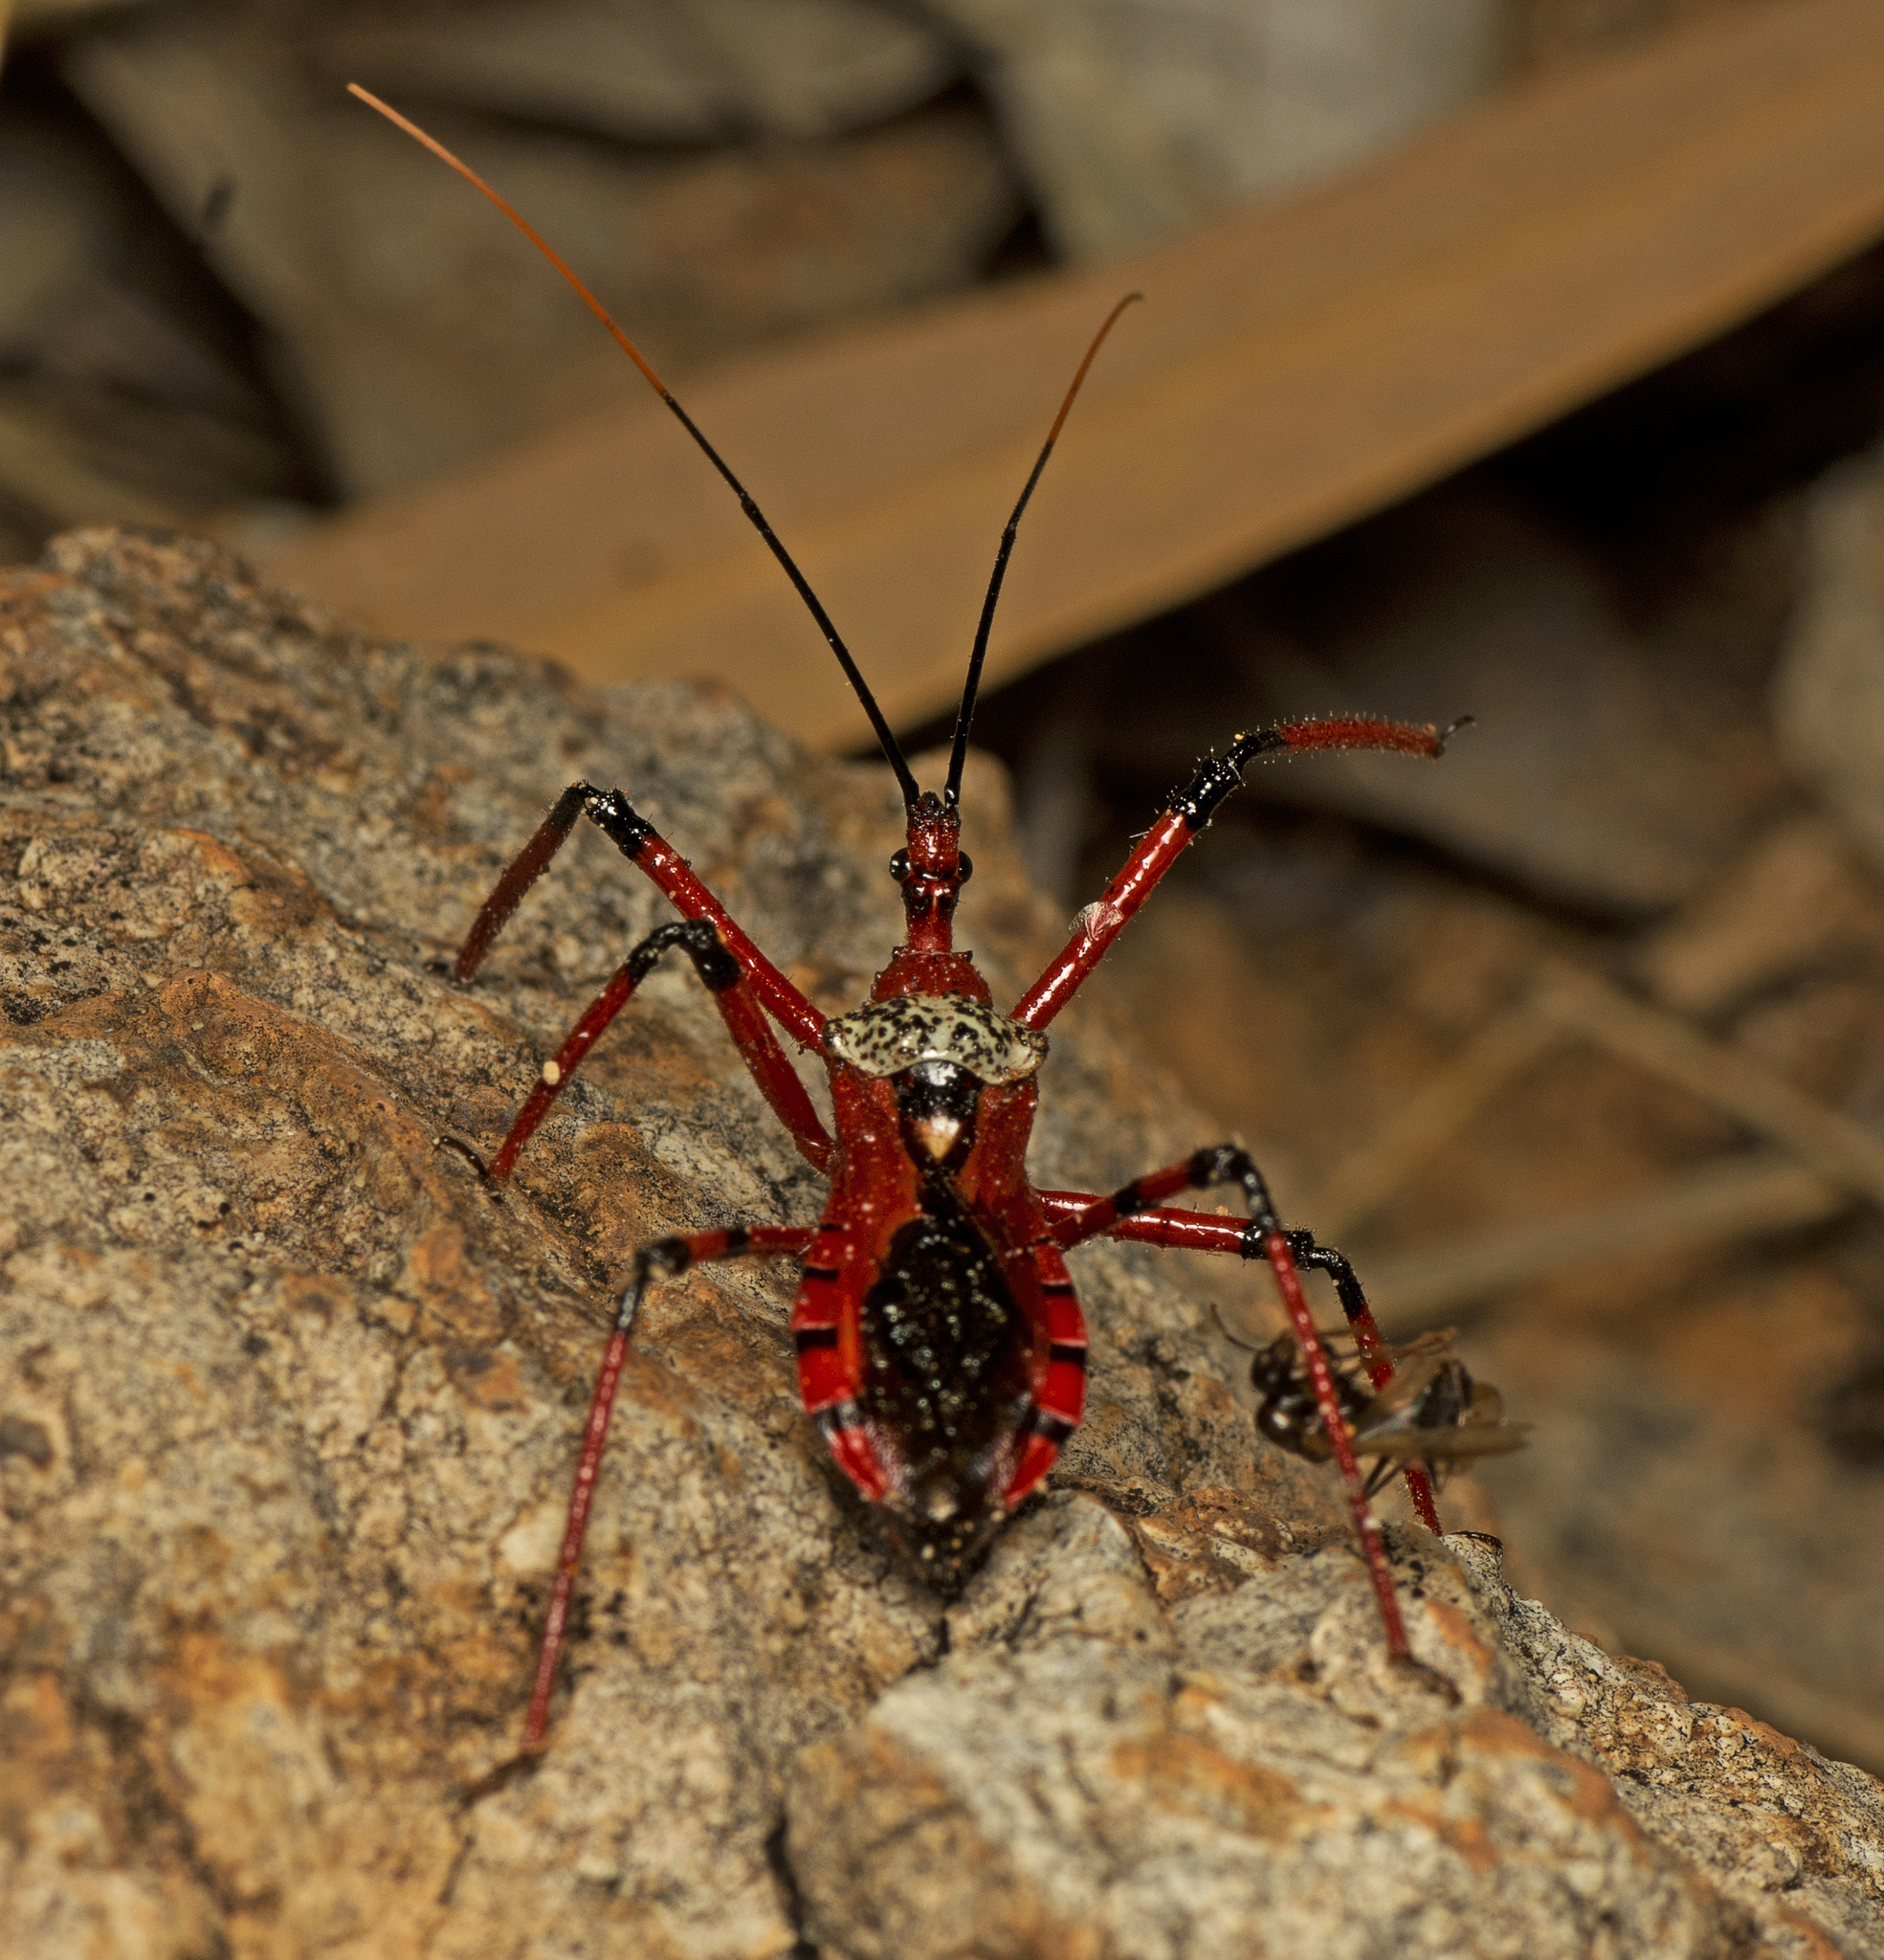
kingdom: Animalia
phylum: Arthropoda
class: Insecta
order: Hemiptera
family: Reduviidae
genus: Poecilosphodrus
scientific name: Poecilosphodrus gratiosus
